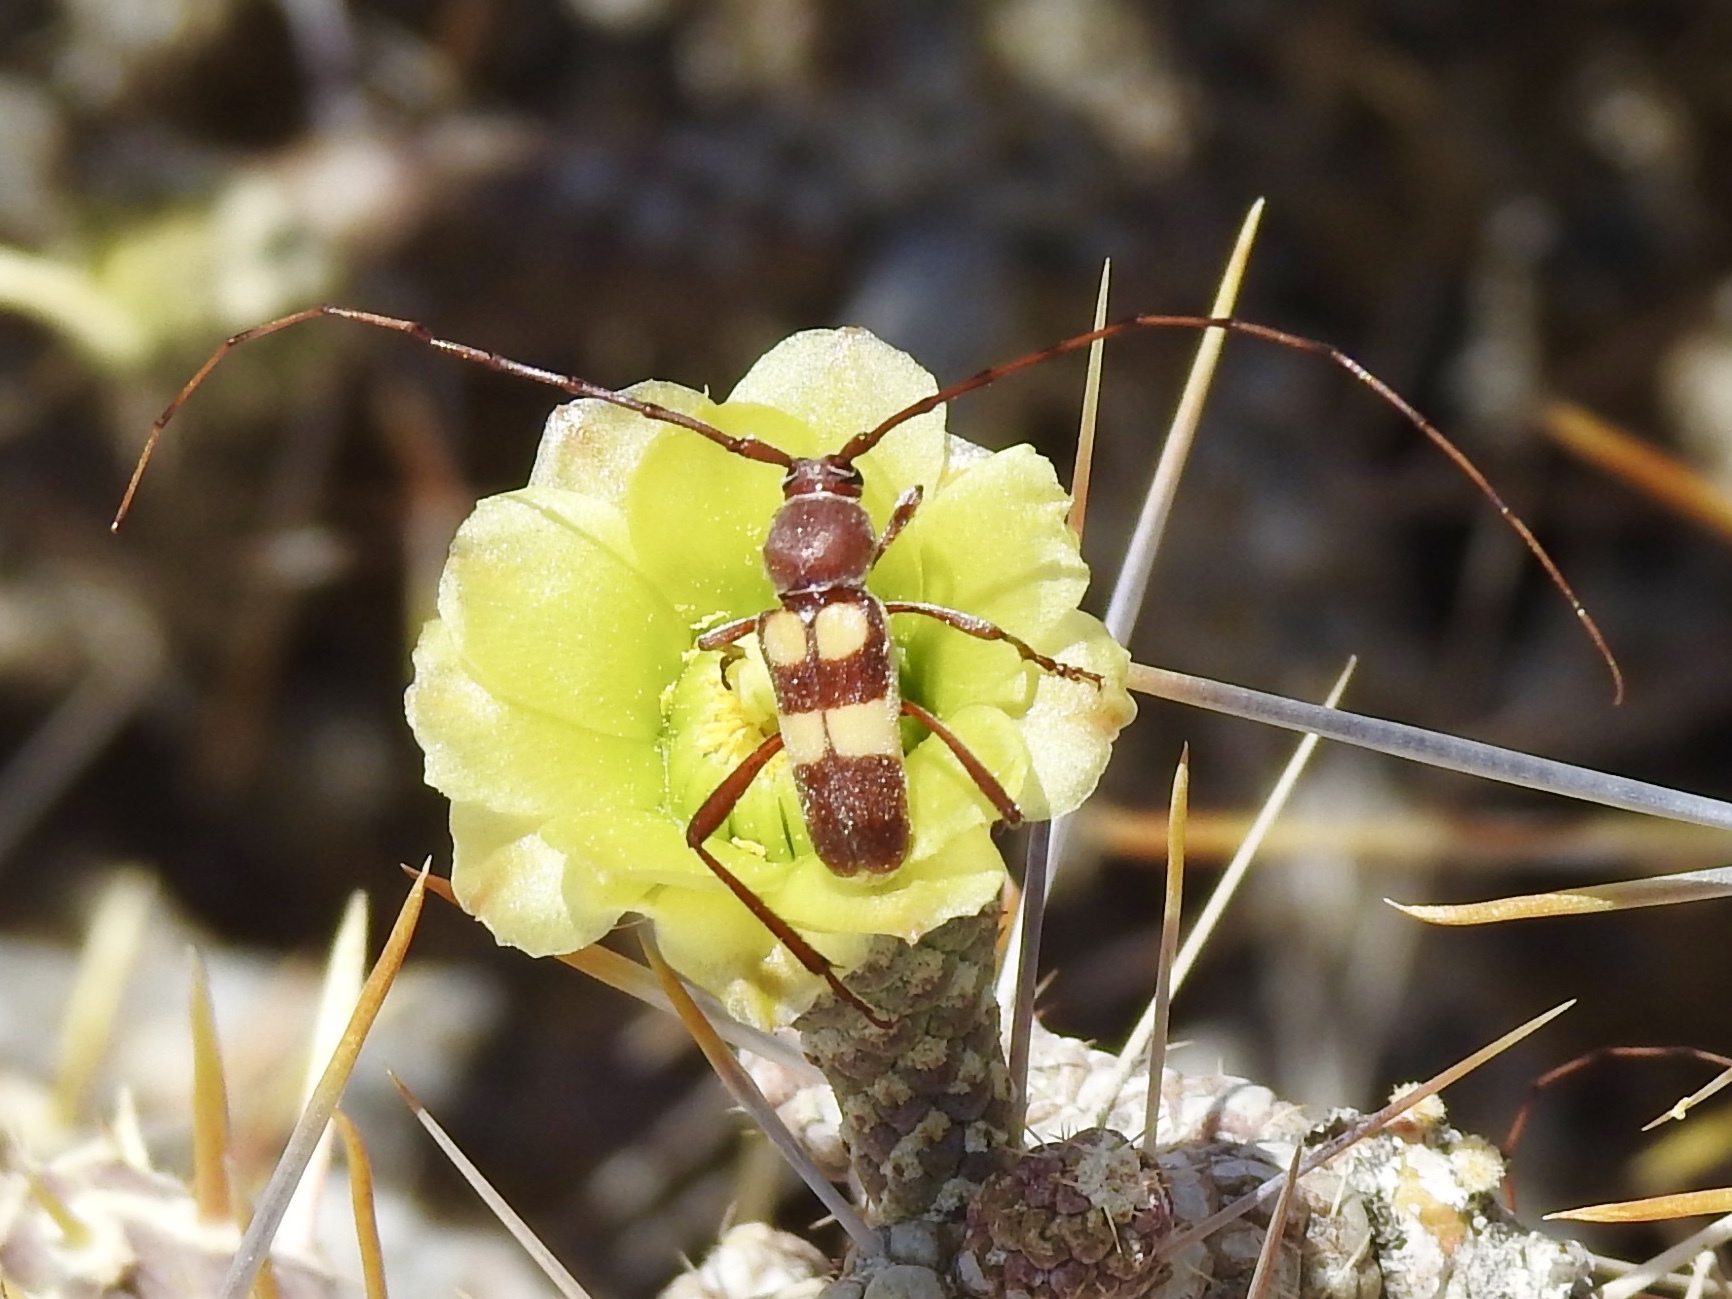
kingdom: Animalia
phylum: Arthropoda
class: Insecta
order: Coleoptera
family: Cerambycidae
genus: Aethecerinus
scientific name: Aethecerinus latecinctus
